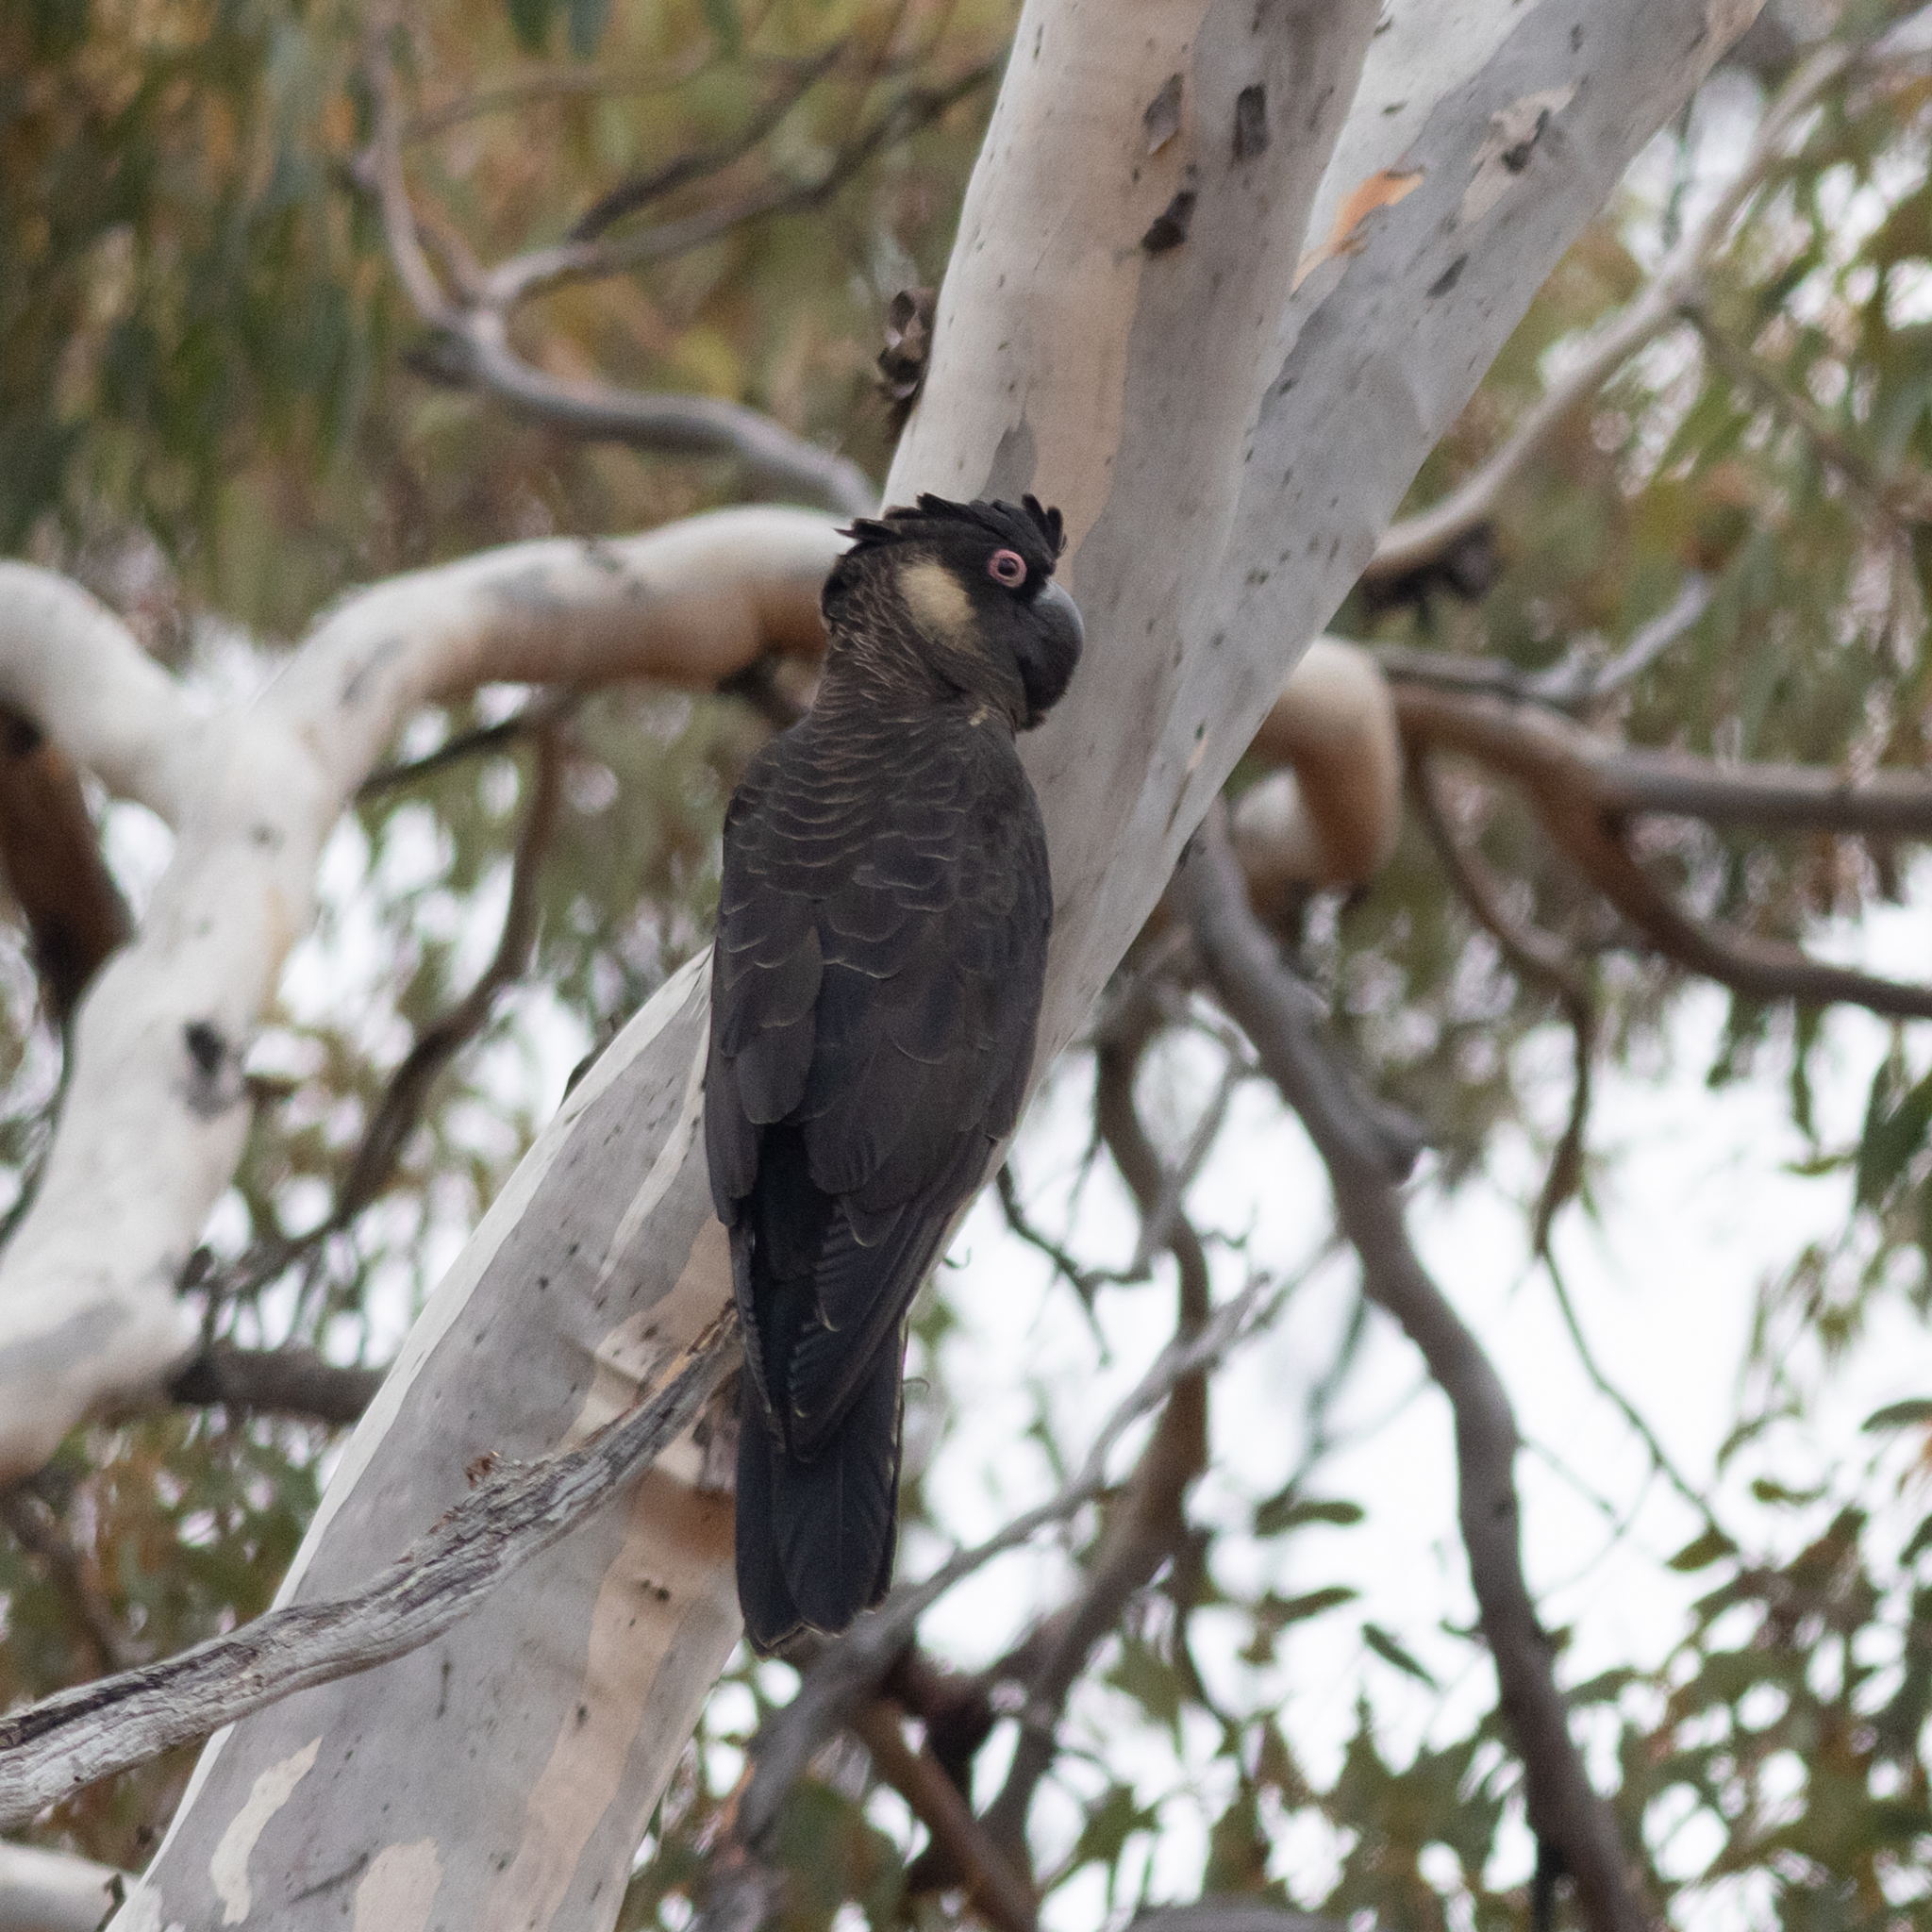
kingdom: Animalia
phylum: Chordata
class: Aves
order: Psittaciformes
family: Cacatuidae
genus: Zanda
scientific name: Zanda latirostris
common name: Short-billed black-cockatoo
